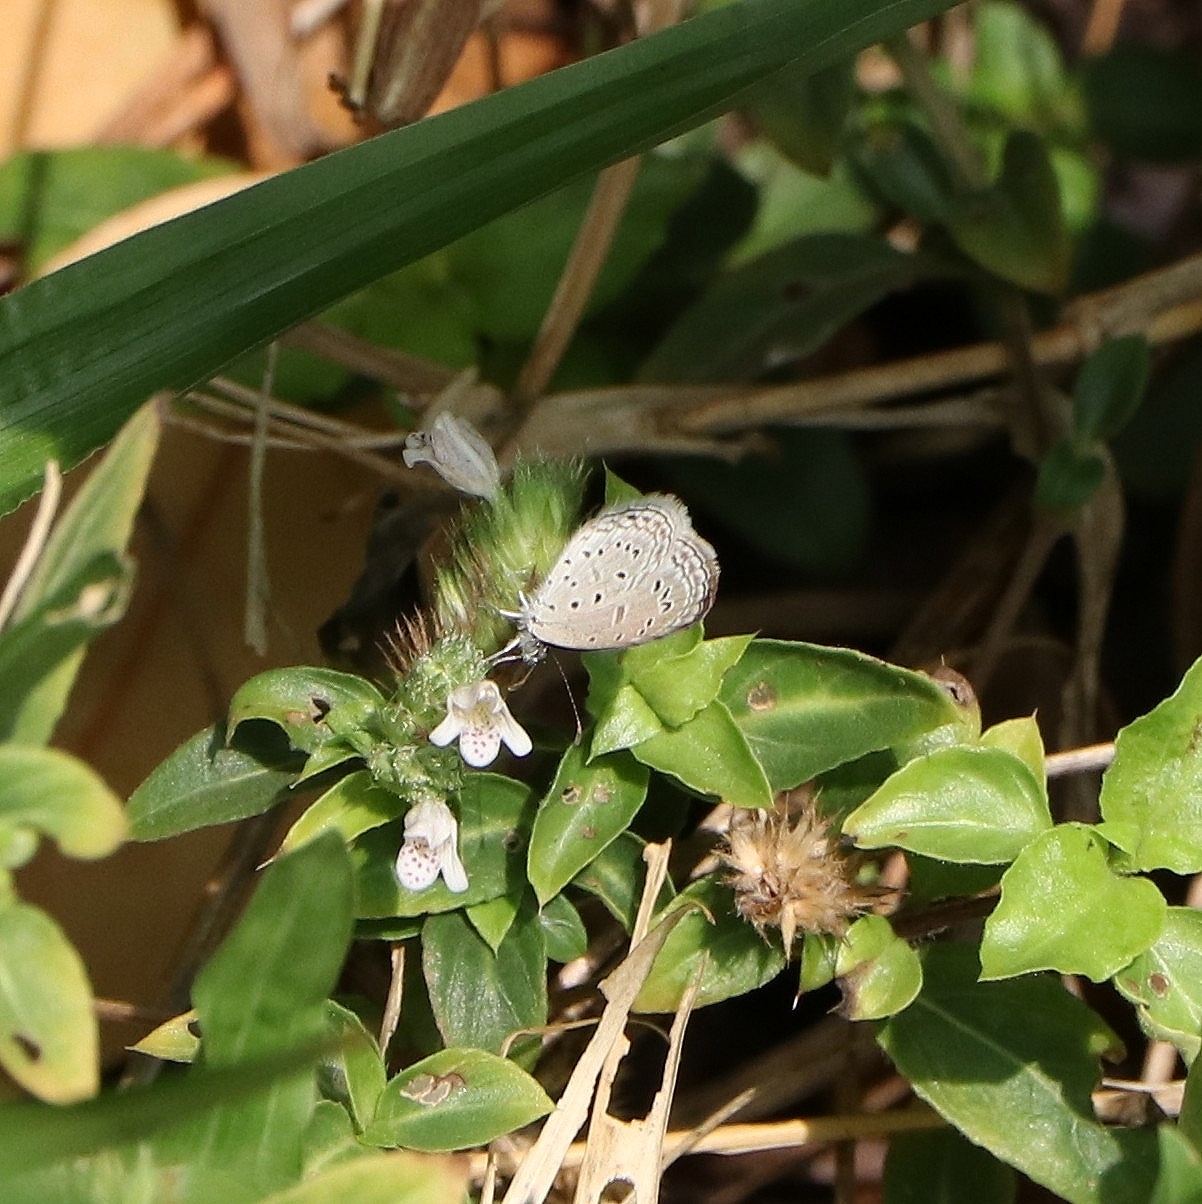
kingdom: Animalia
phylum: Arthropoda
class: Insecta
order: Lepidoptera
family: Lycaenidae
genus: Zizula
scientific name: Zizula hylax
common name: Gaika blue
